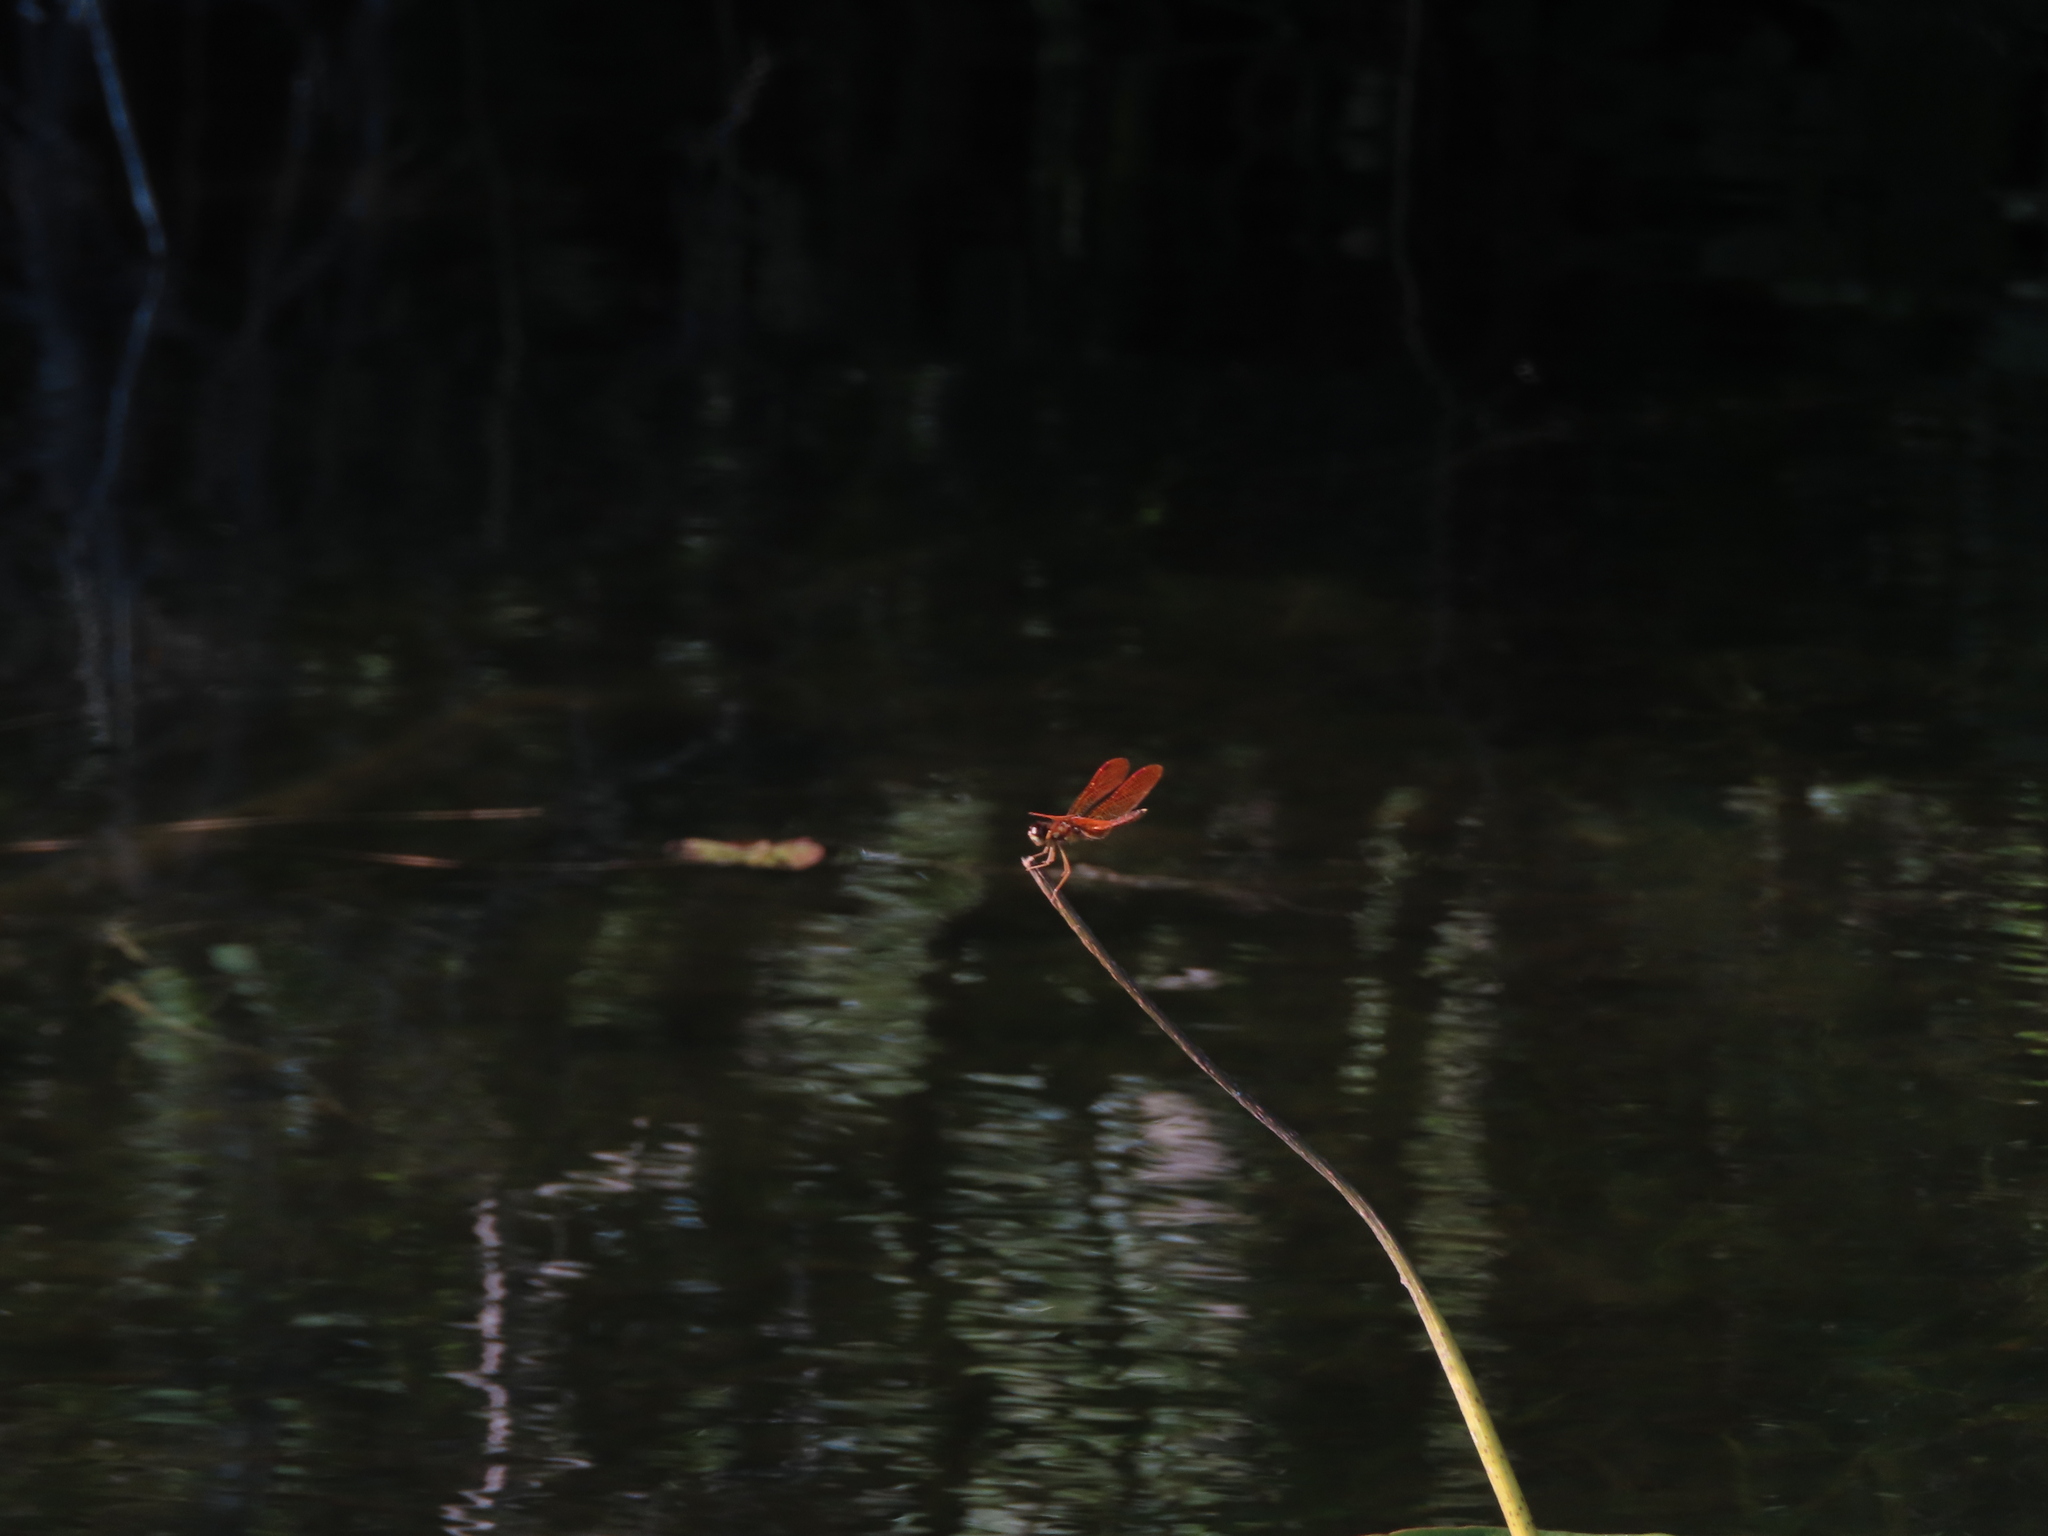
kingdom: Animalia
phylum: Arthropoda
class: Insecta
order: Odonata
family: Libellulidae
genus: Perithemis
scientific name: Perithemis tenera
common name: Eastern amberwing
